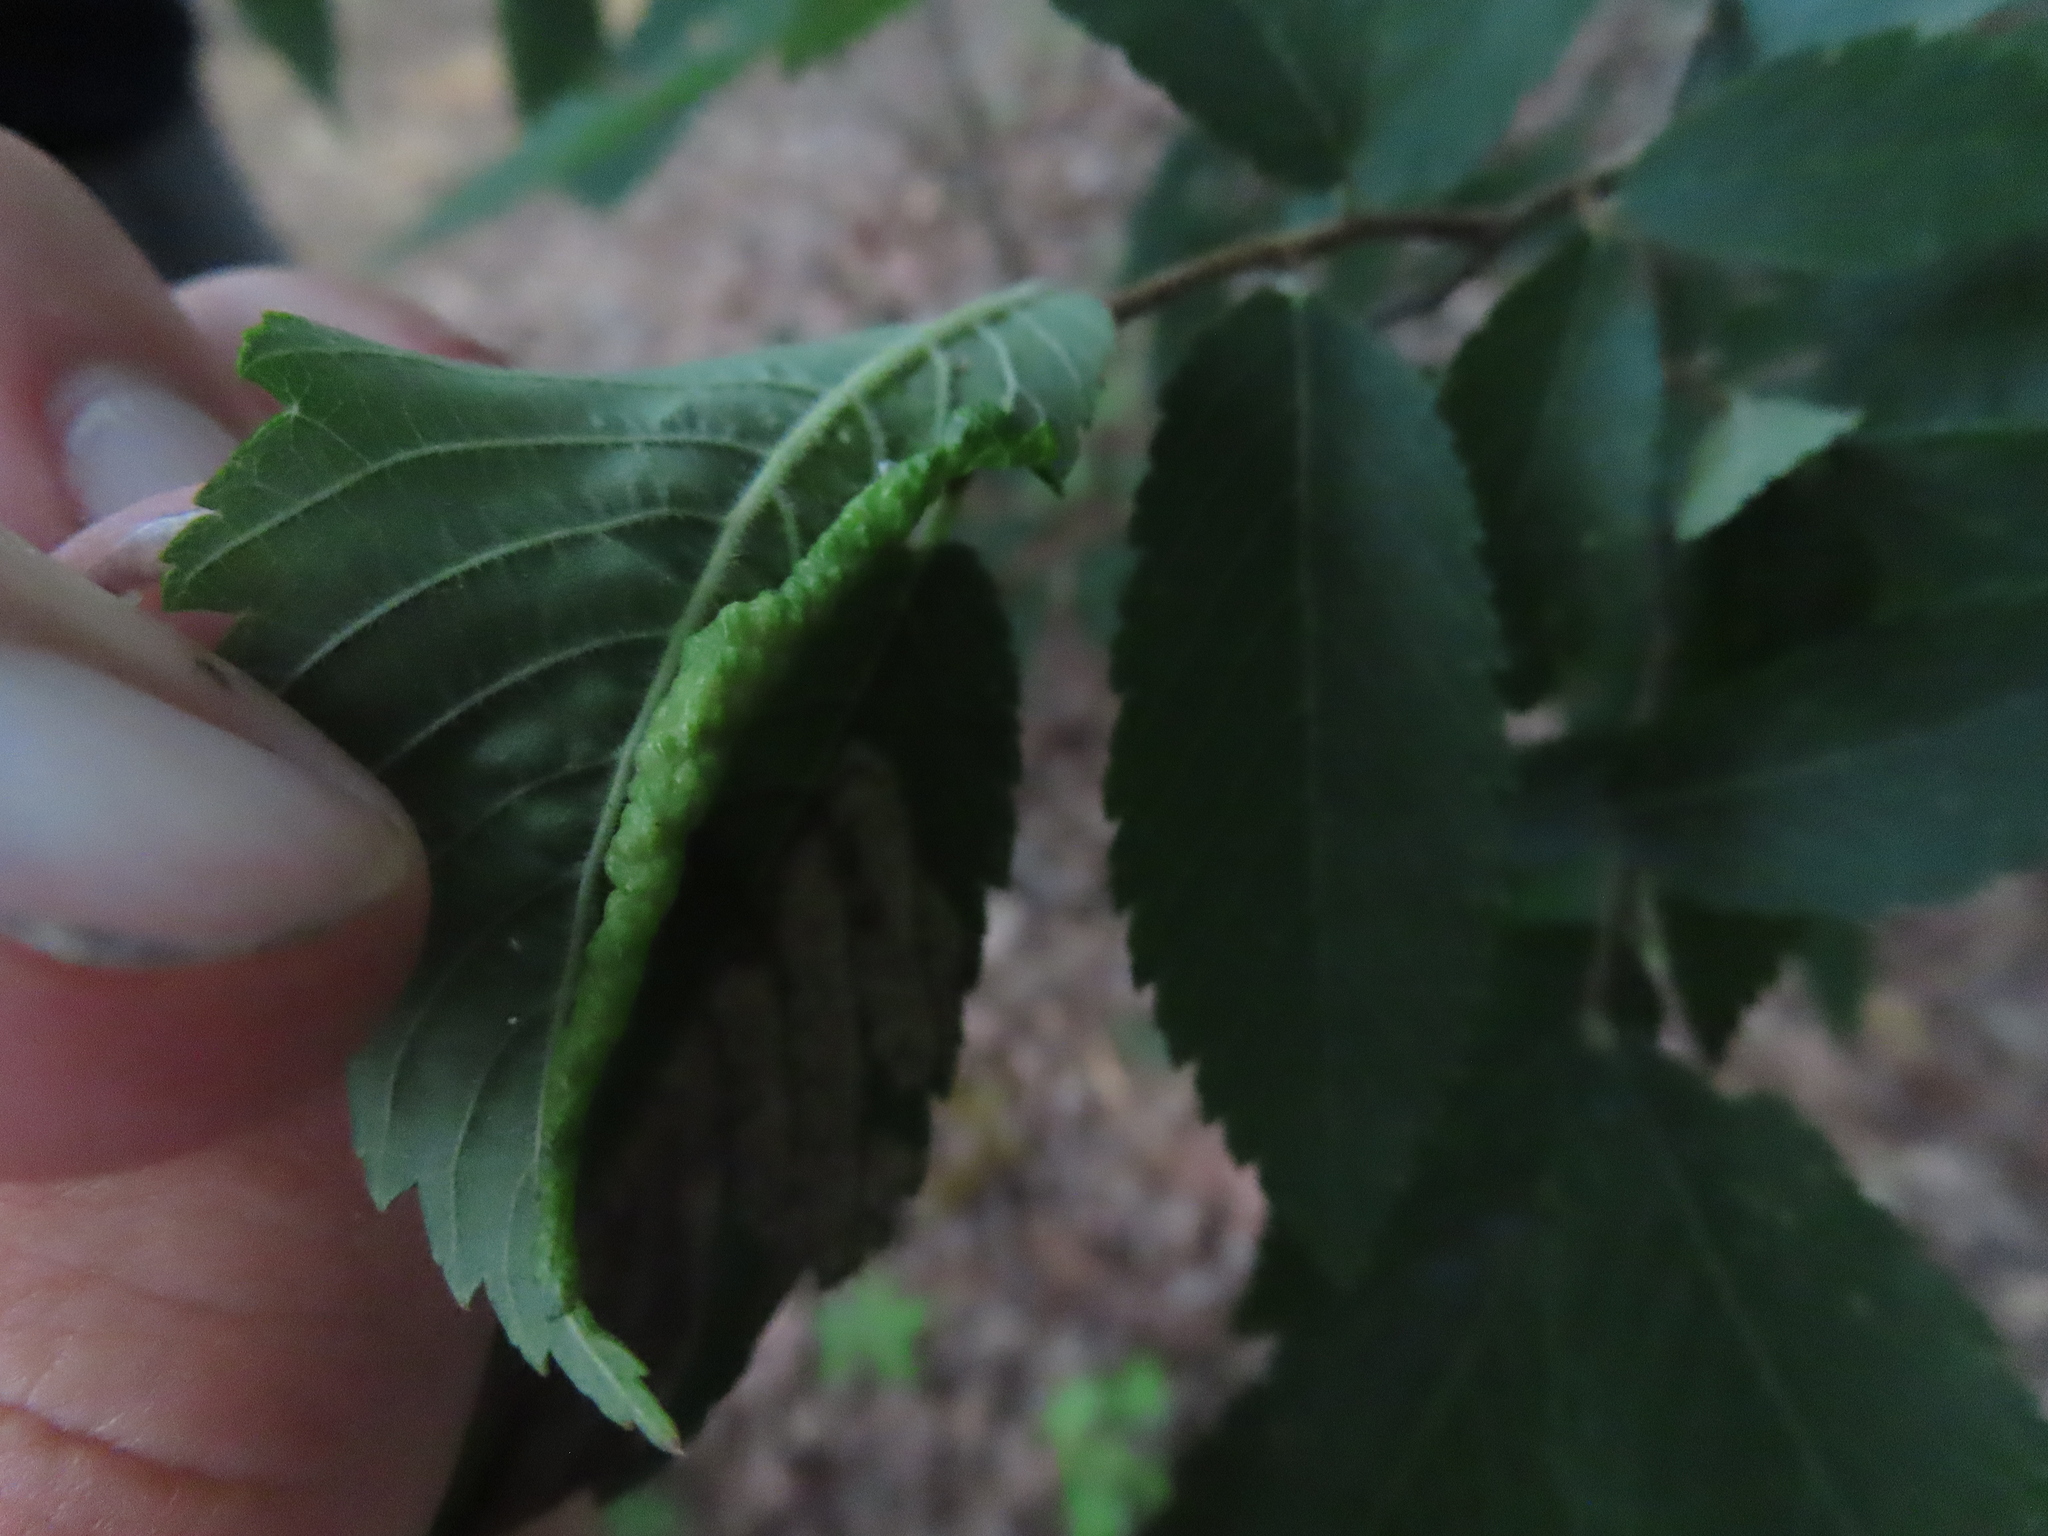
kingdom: Animalia
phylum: Arthropoda
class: Insecta
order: Hemiptera
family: Aphididae
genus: Eriosoma
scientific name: Eriosoma gillettei
